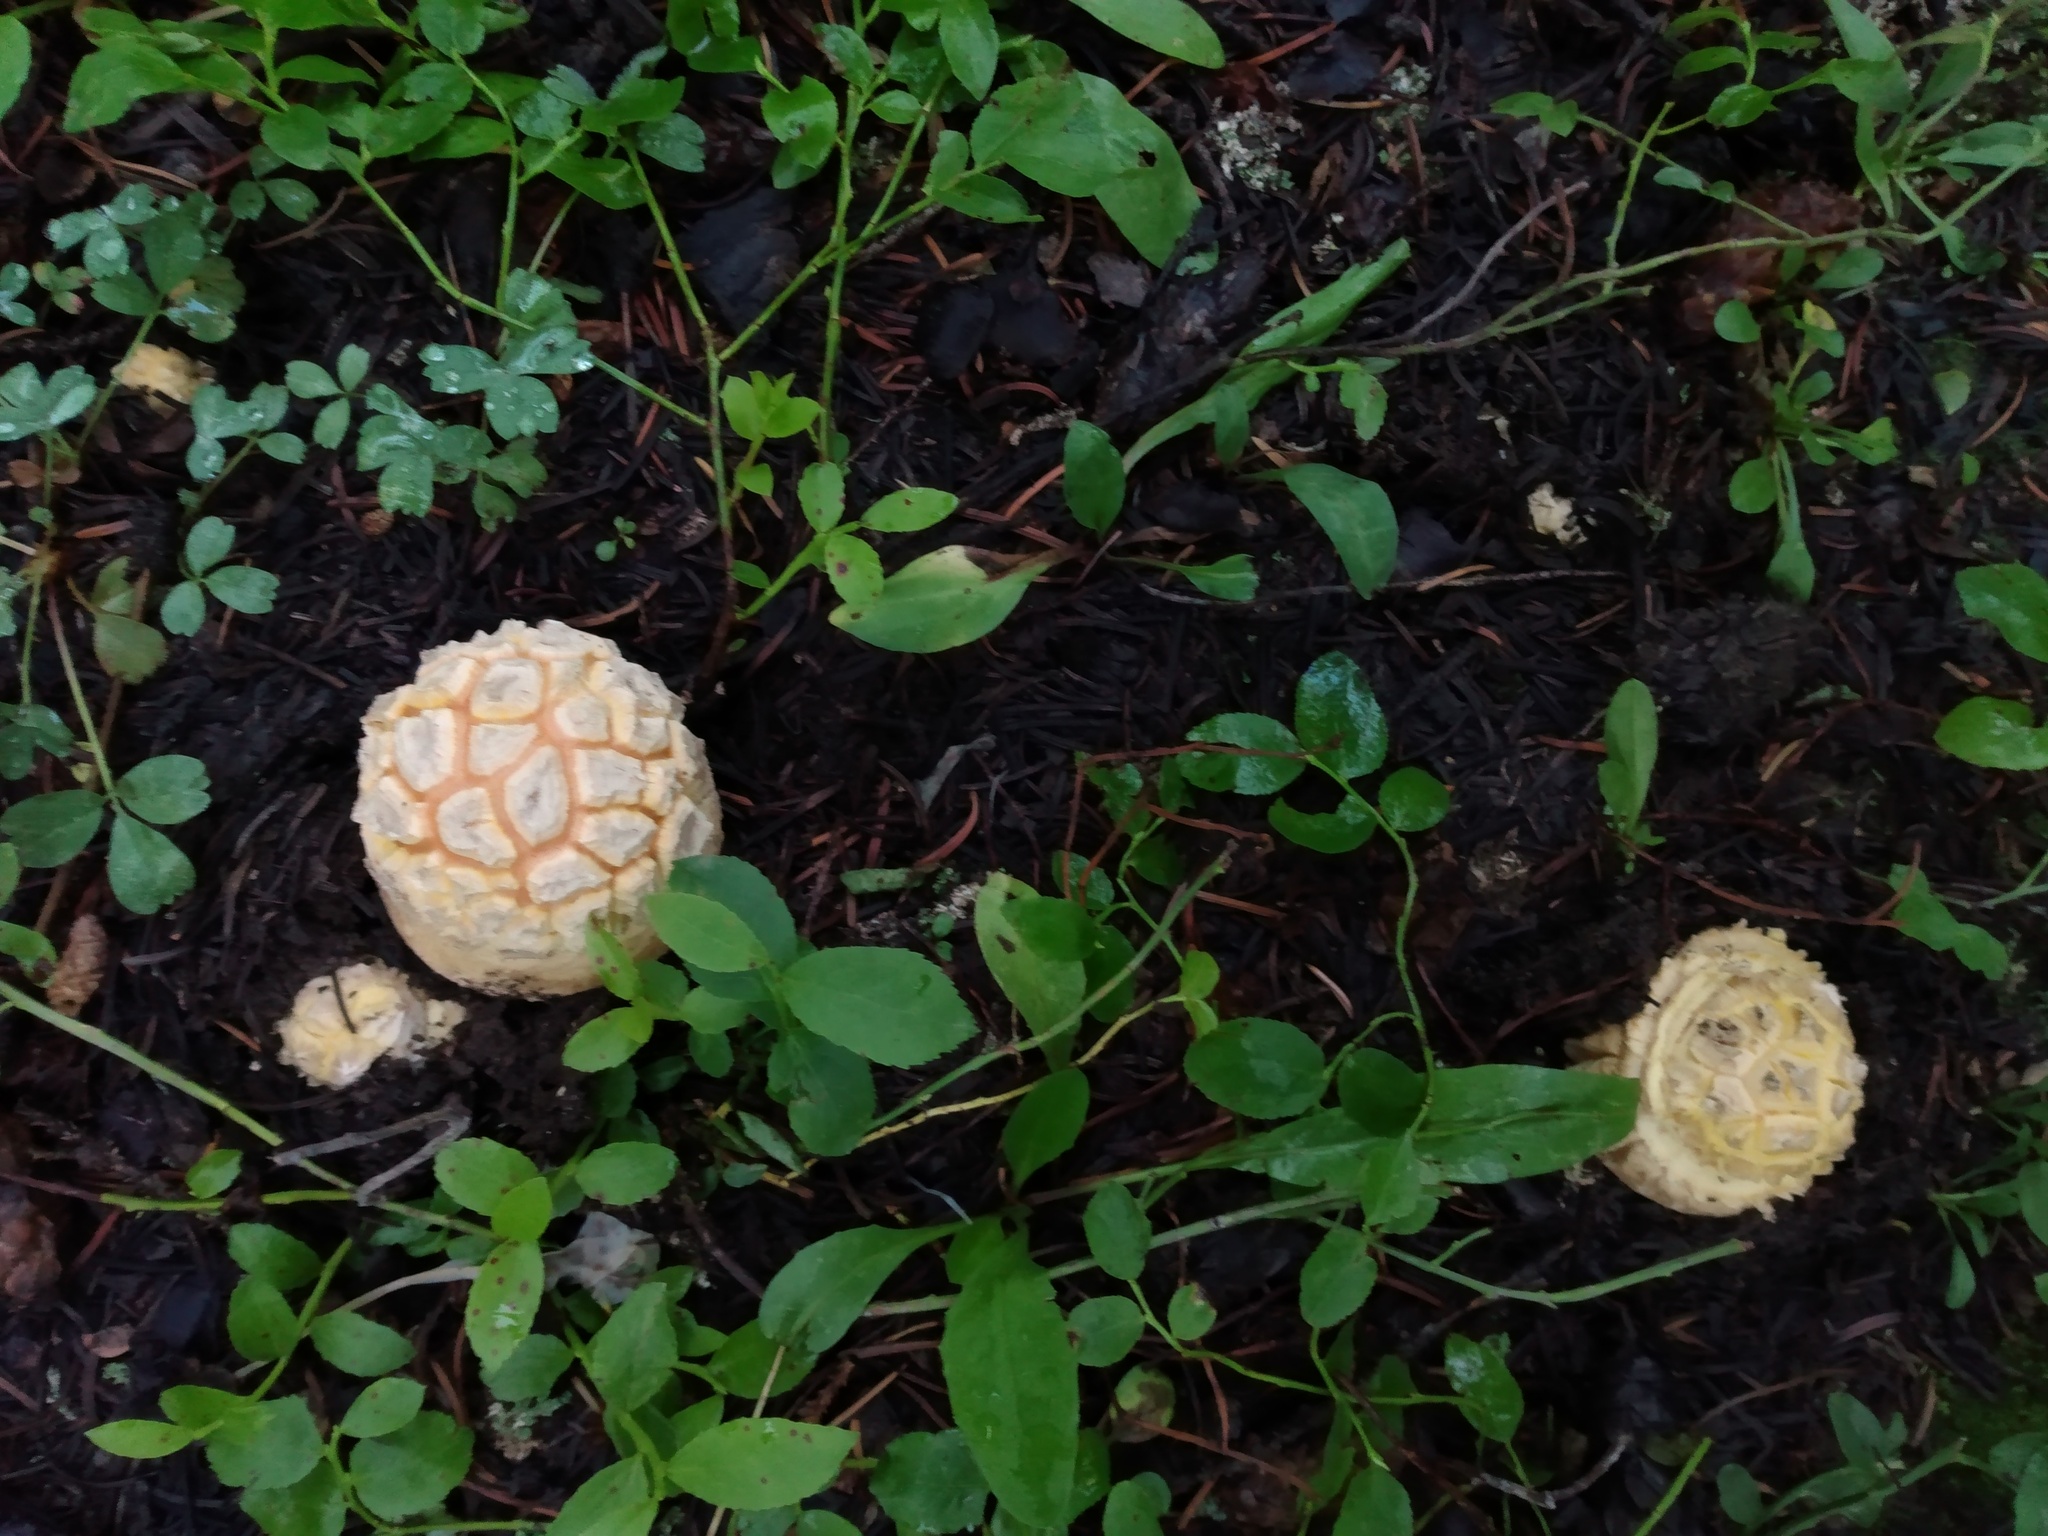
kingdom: Fungi
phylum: Basidiomycota
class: Agaricomycetes
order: Agaricales
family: Amanitaceae
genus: Amanita
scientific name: Amanita muscaria
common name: Fly agaric
